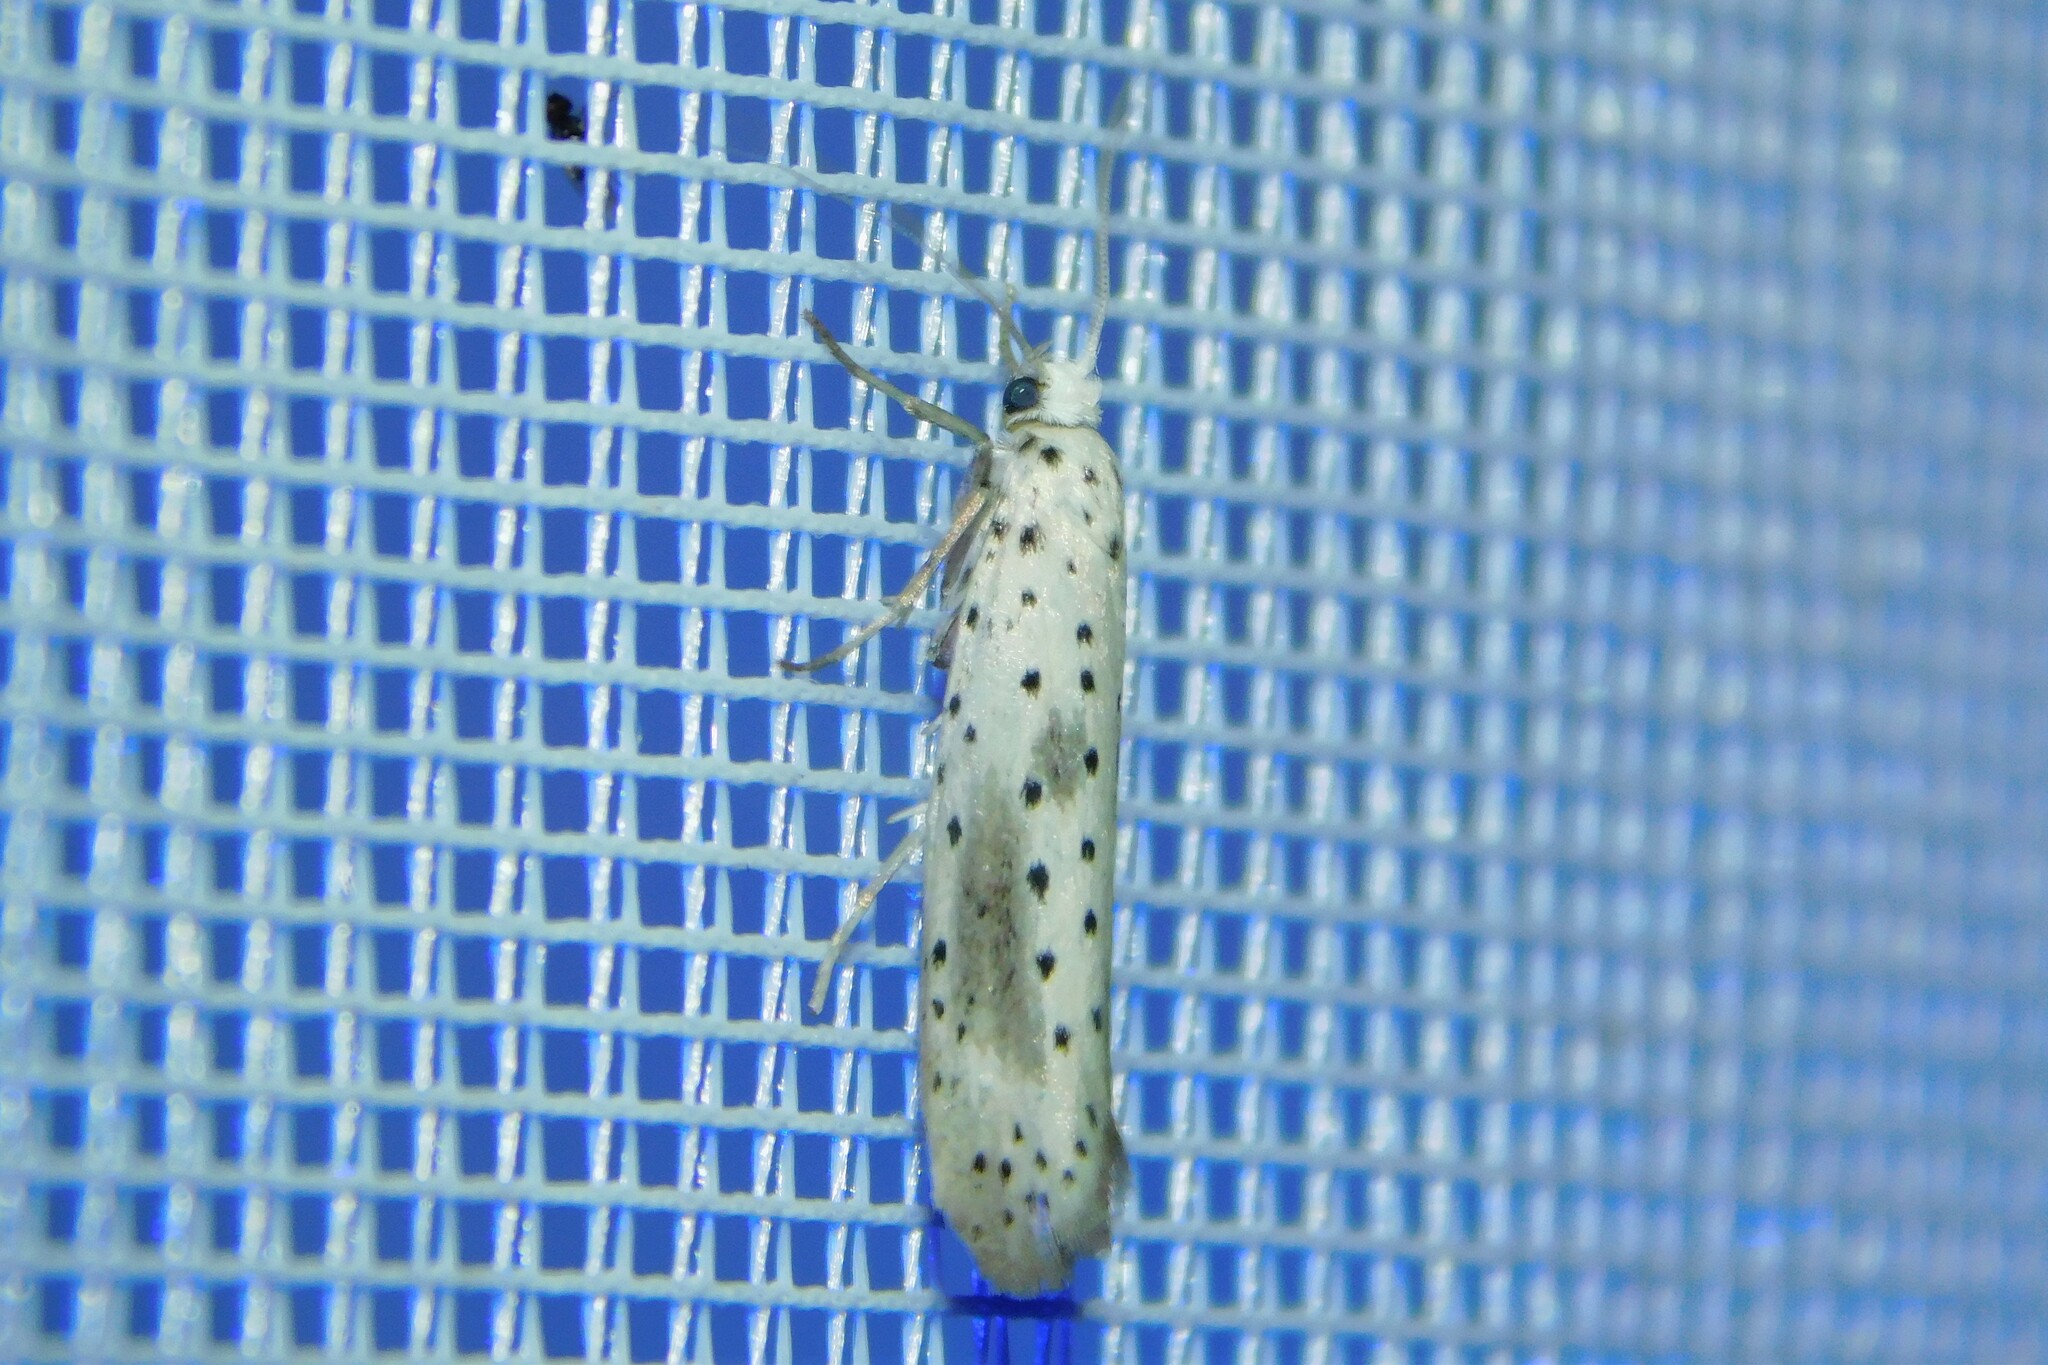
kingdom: Animalia
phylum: Arthropoda
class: Insecta
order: Lepidoptera
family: Yponomeutidae
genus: Yponomeuta
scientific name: Yponomeuta irrorella
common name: Scarce ermine
